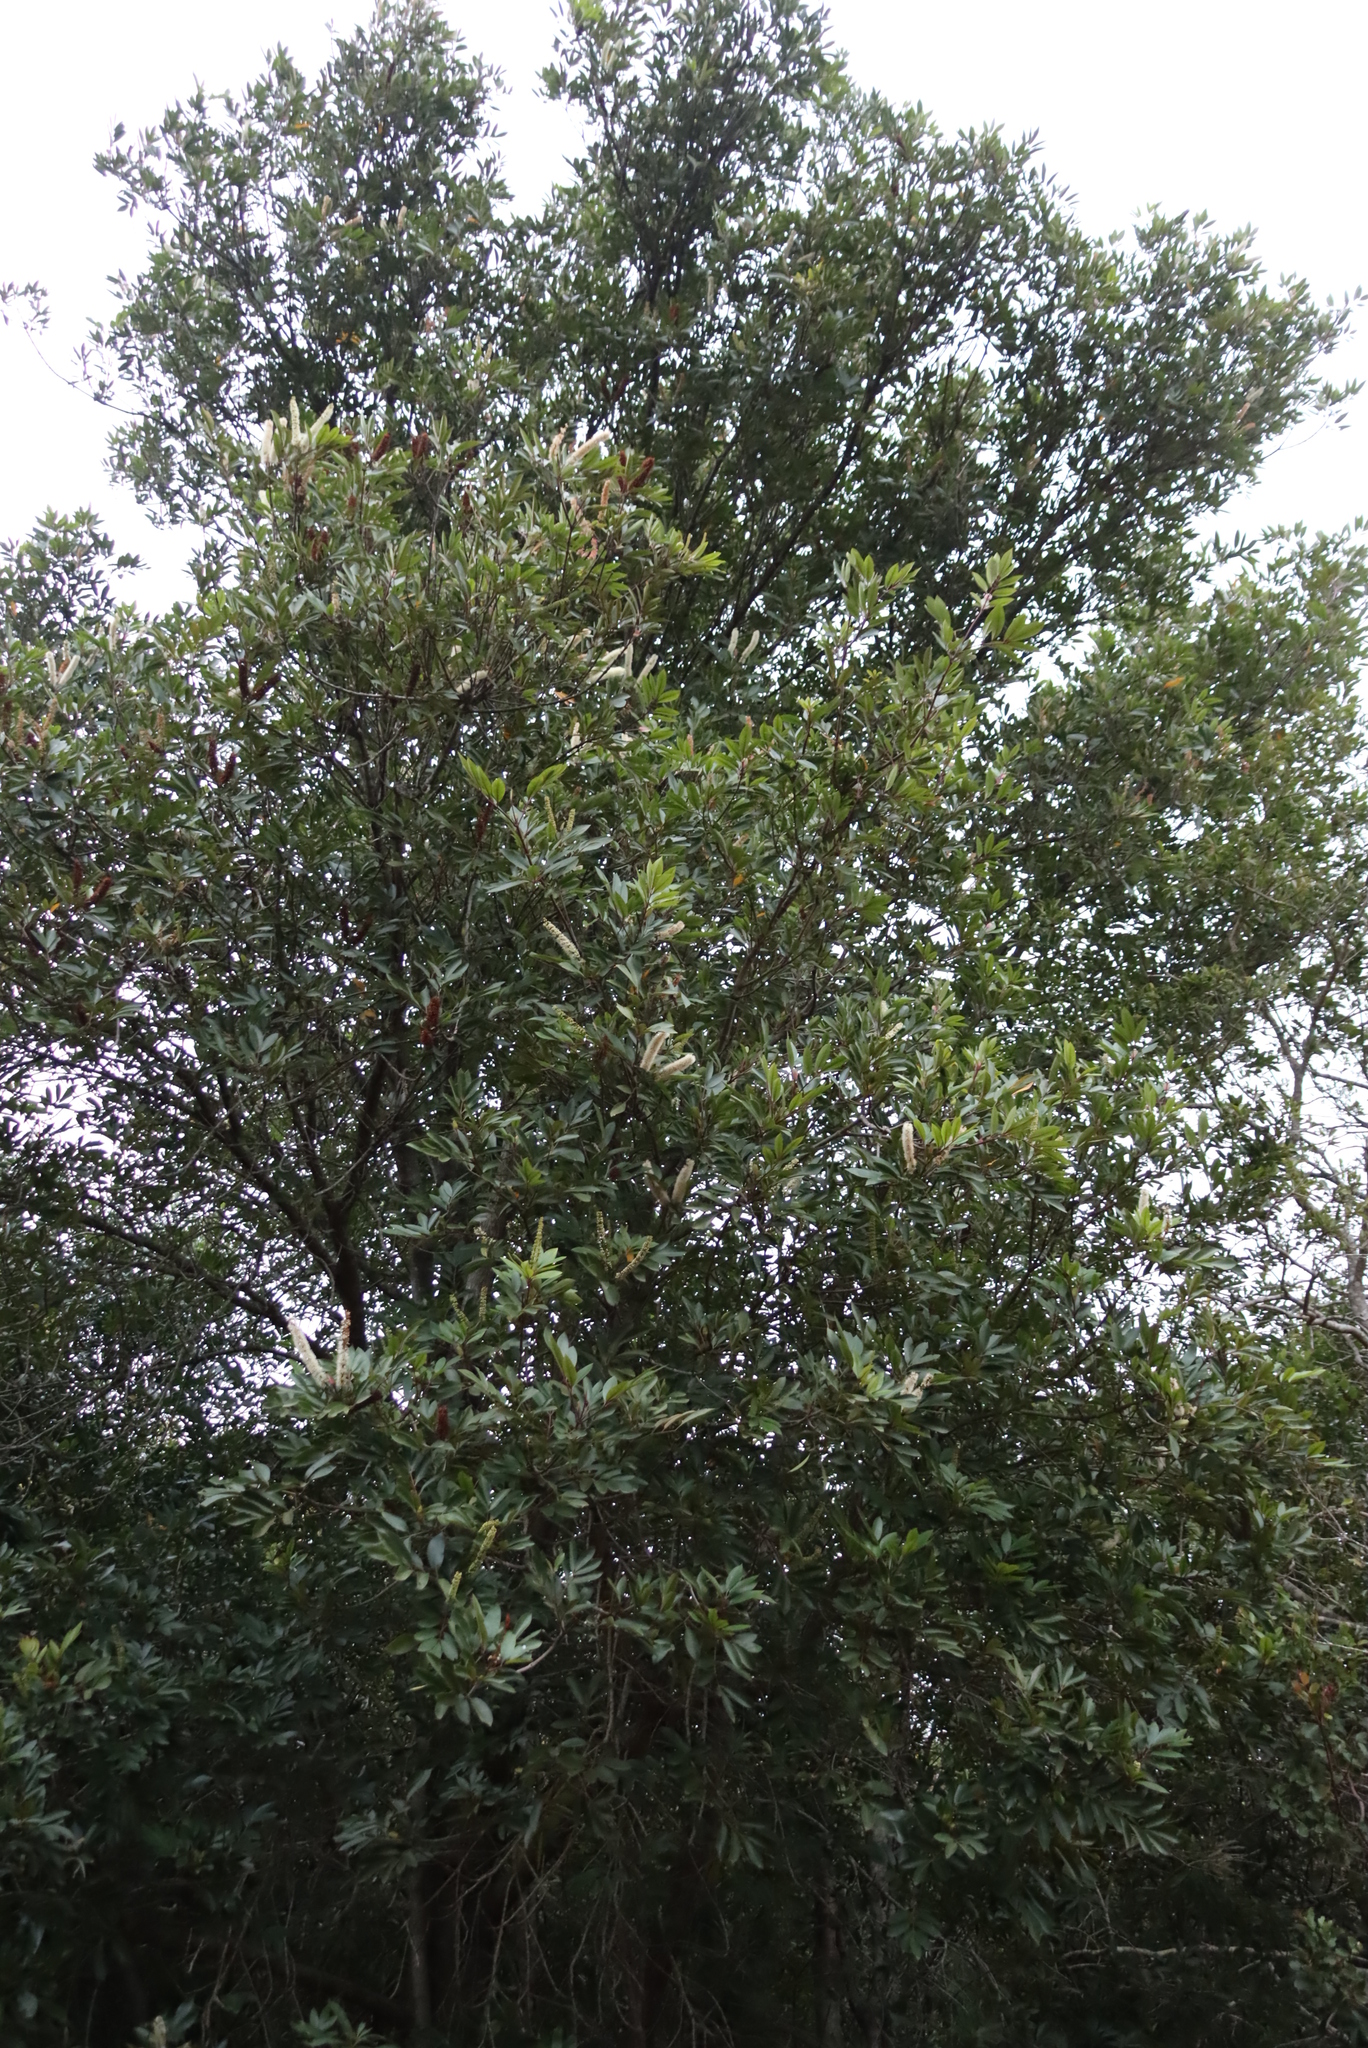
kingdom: Plantae
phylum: Tracheophyta
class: Magnoliopsida
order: Oxalidales
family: Cunoniaceae
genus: Cunonia
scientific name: Cunonia capensis
